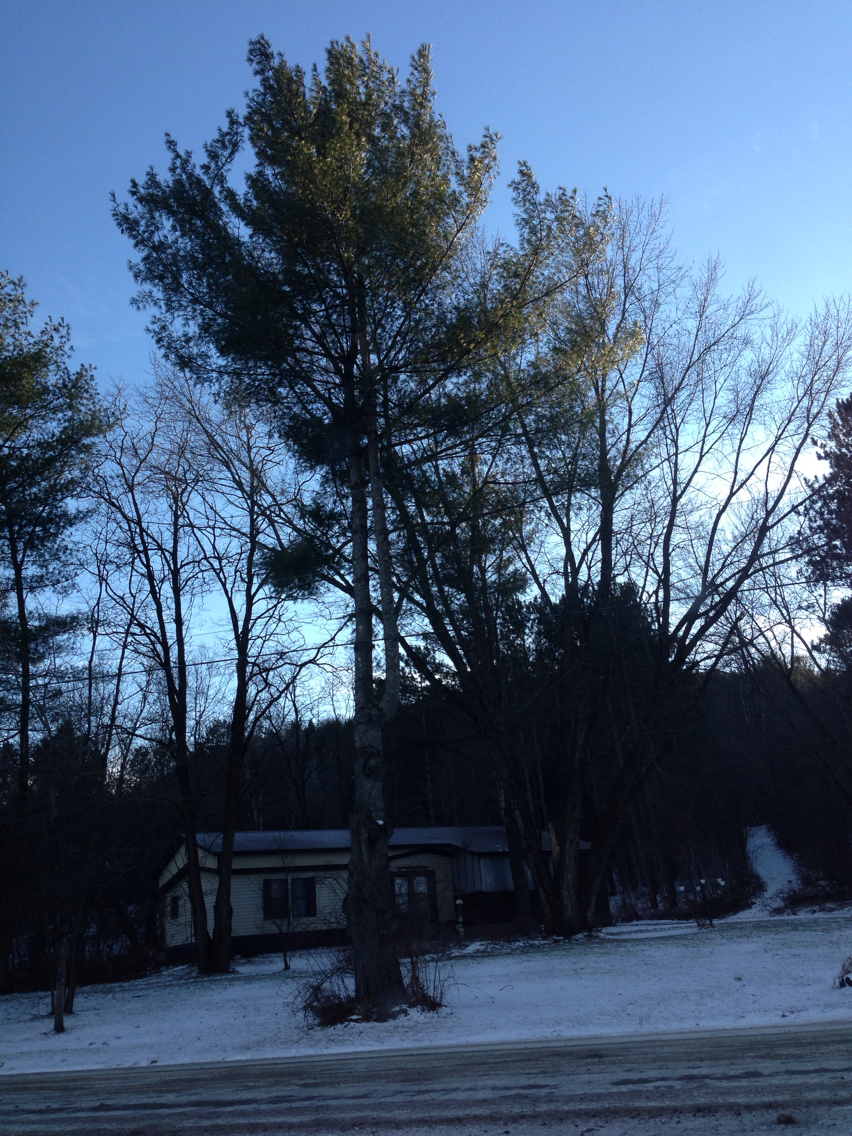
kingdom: Plantae
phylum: Tracheophyta
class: Pinopsida
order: Pinales
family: Pinaceae
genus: Pinus
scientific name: Pinus strobus
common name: Weymouth pine
